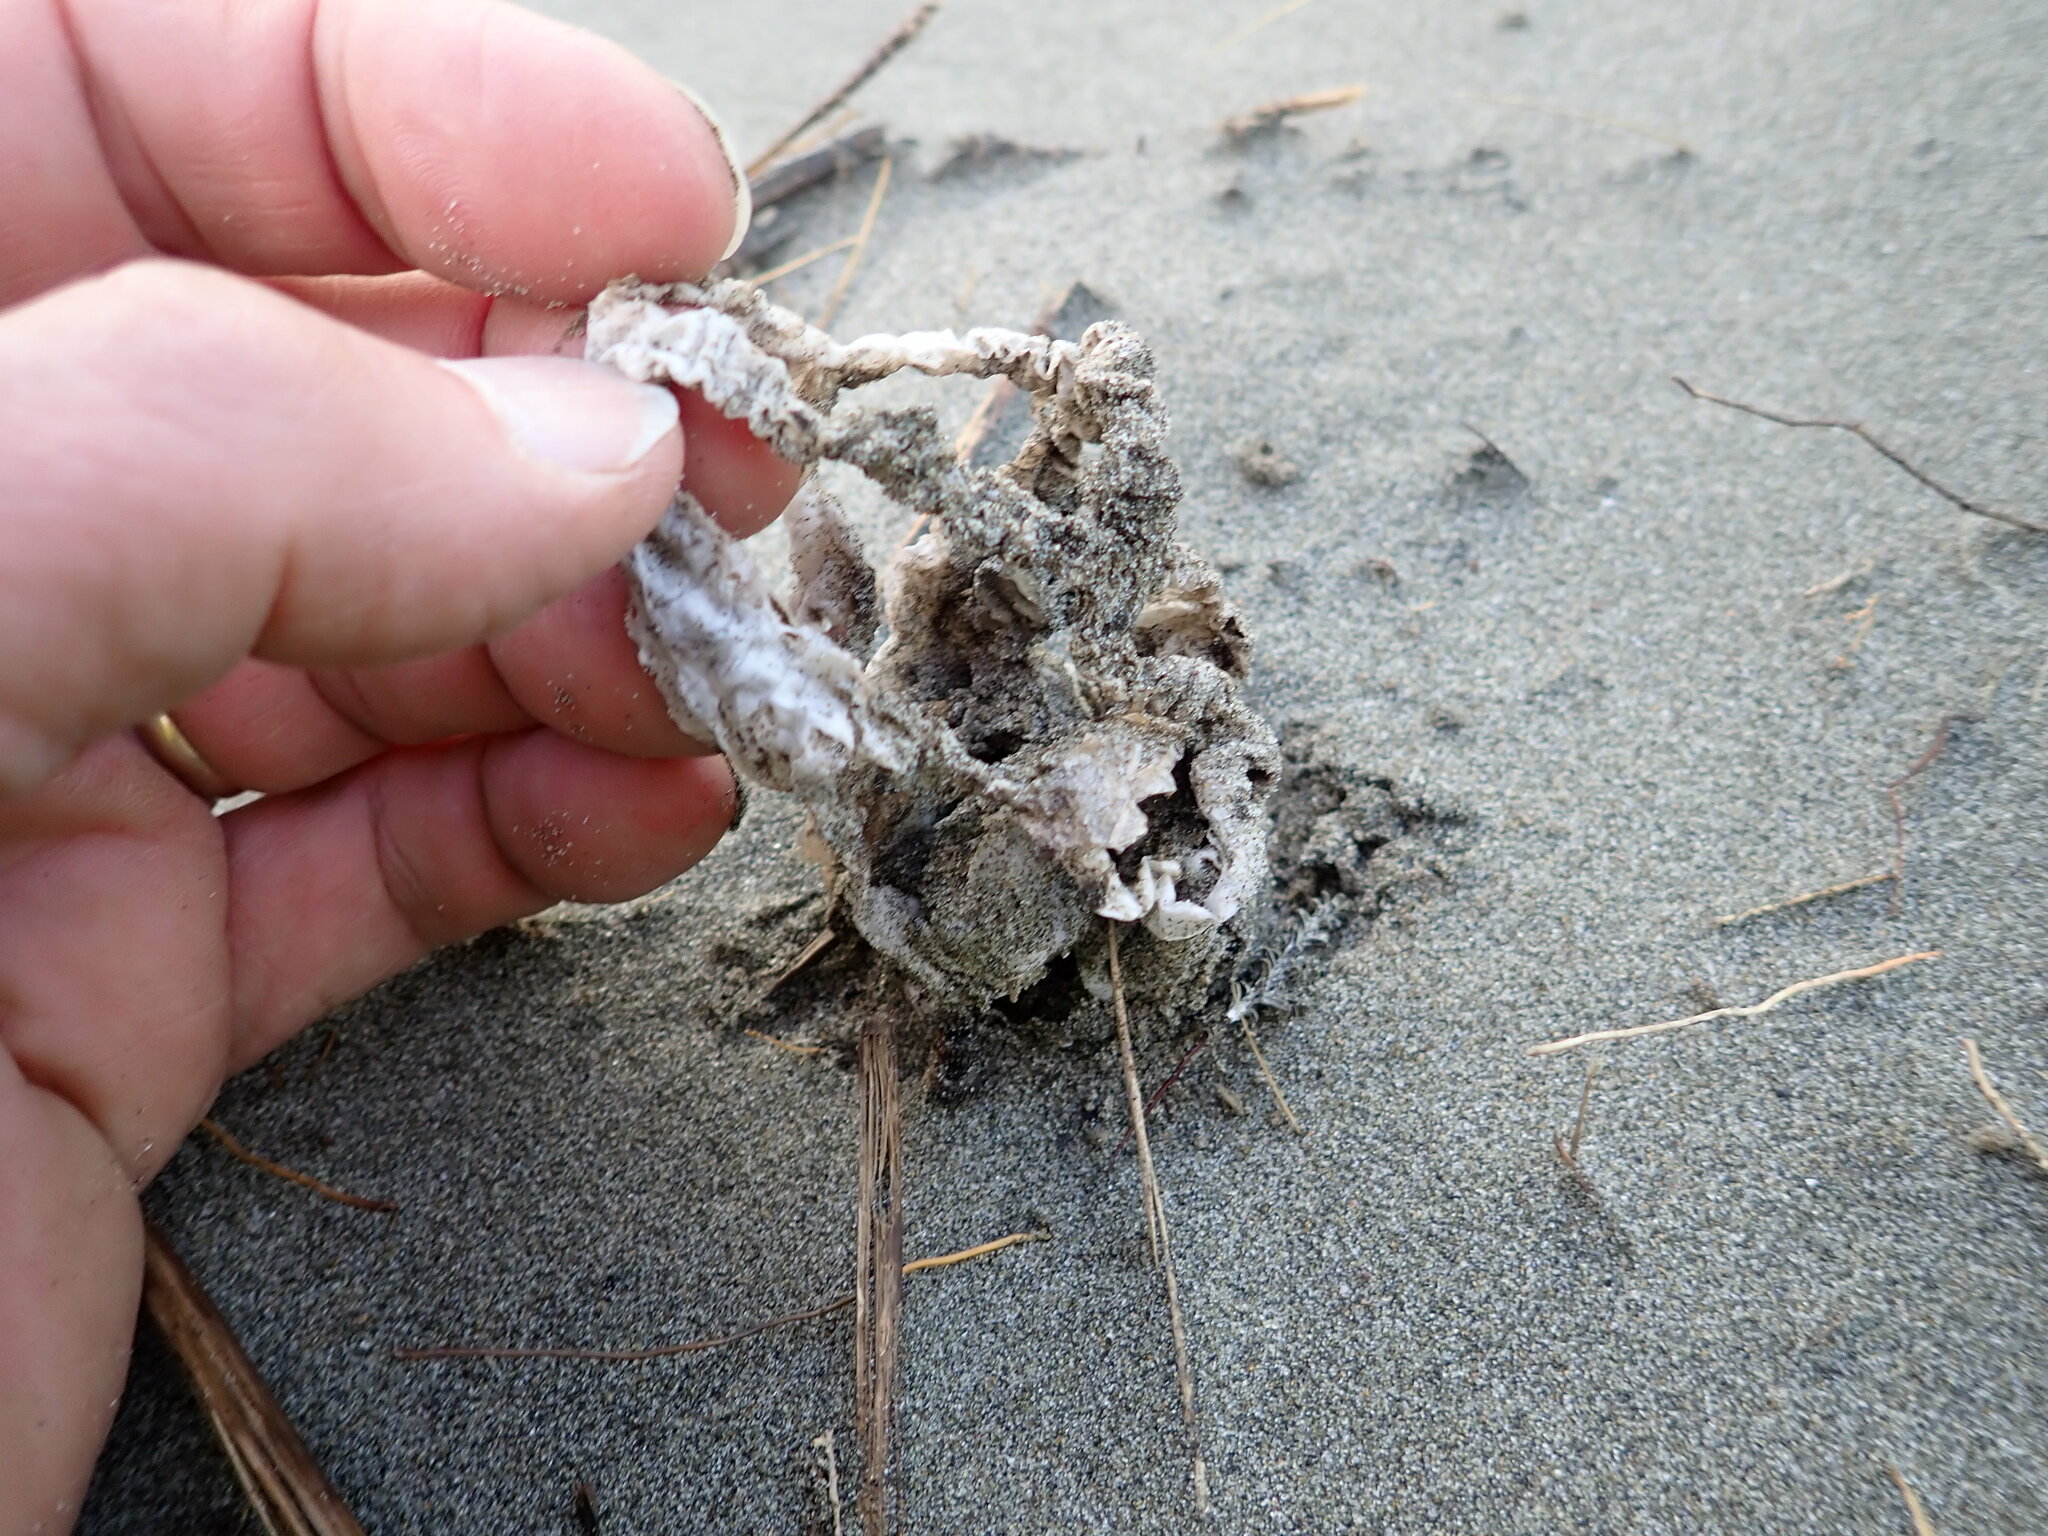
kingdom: Fungi
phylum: Basidiomycota
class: Agaricomycetes
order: Phallales
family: Phallaceae
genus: Ileodictyon
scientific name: Ileodictyon cibarium
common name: Basket fungus
